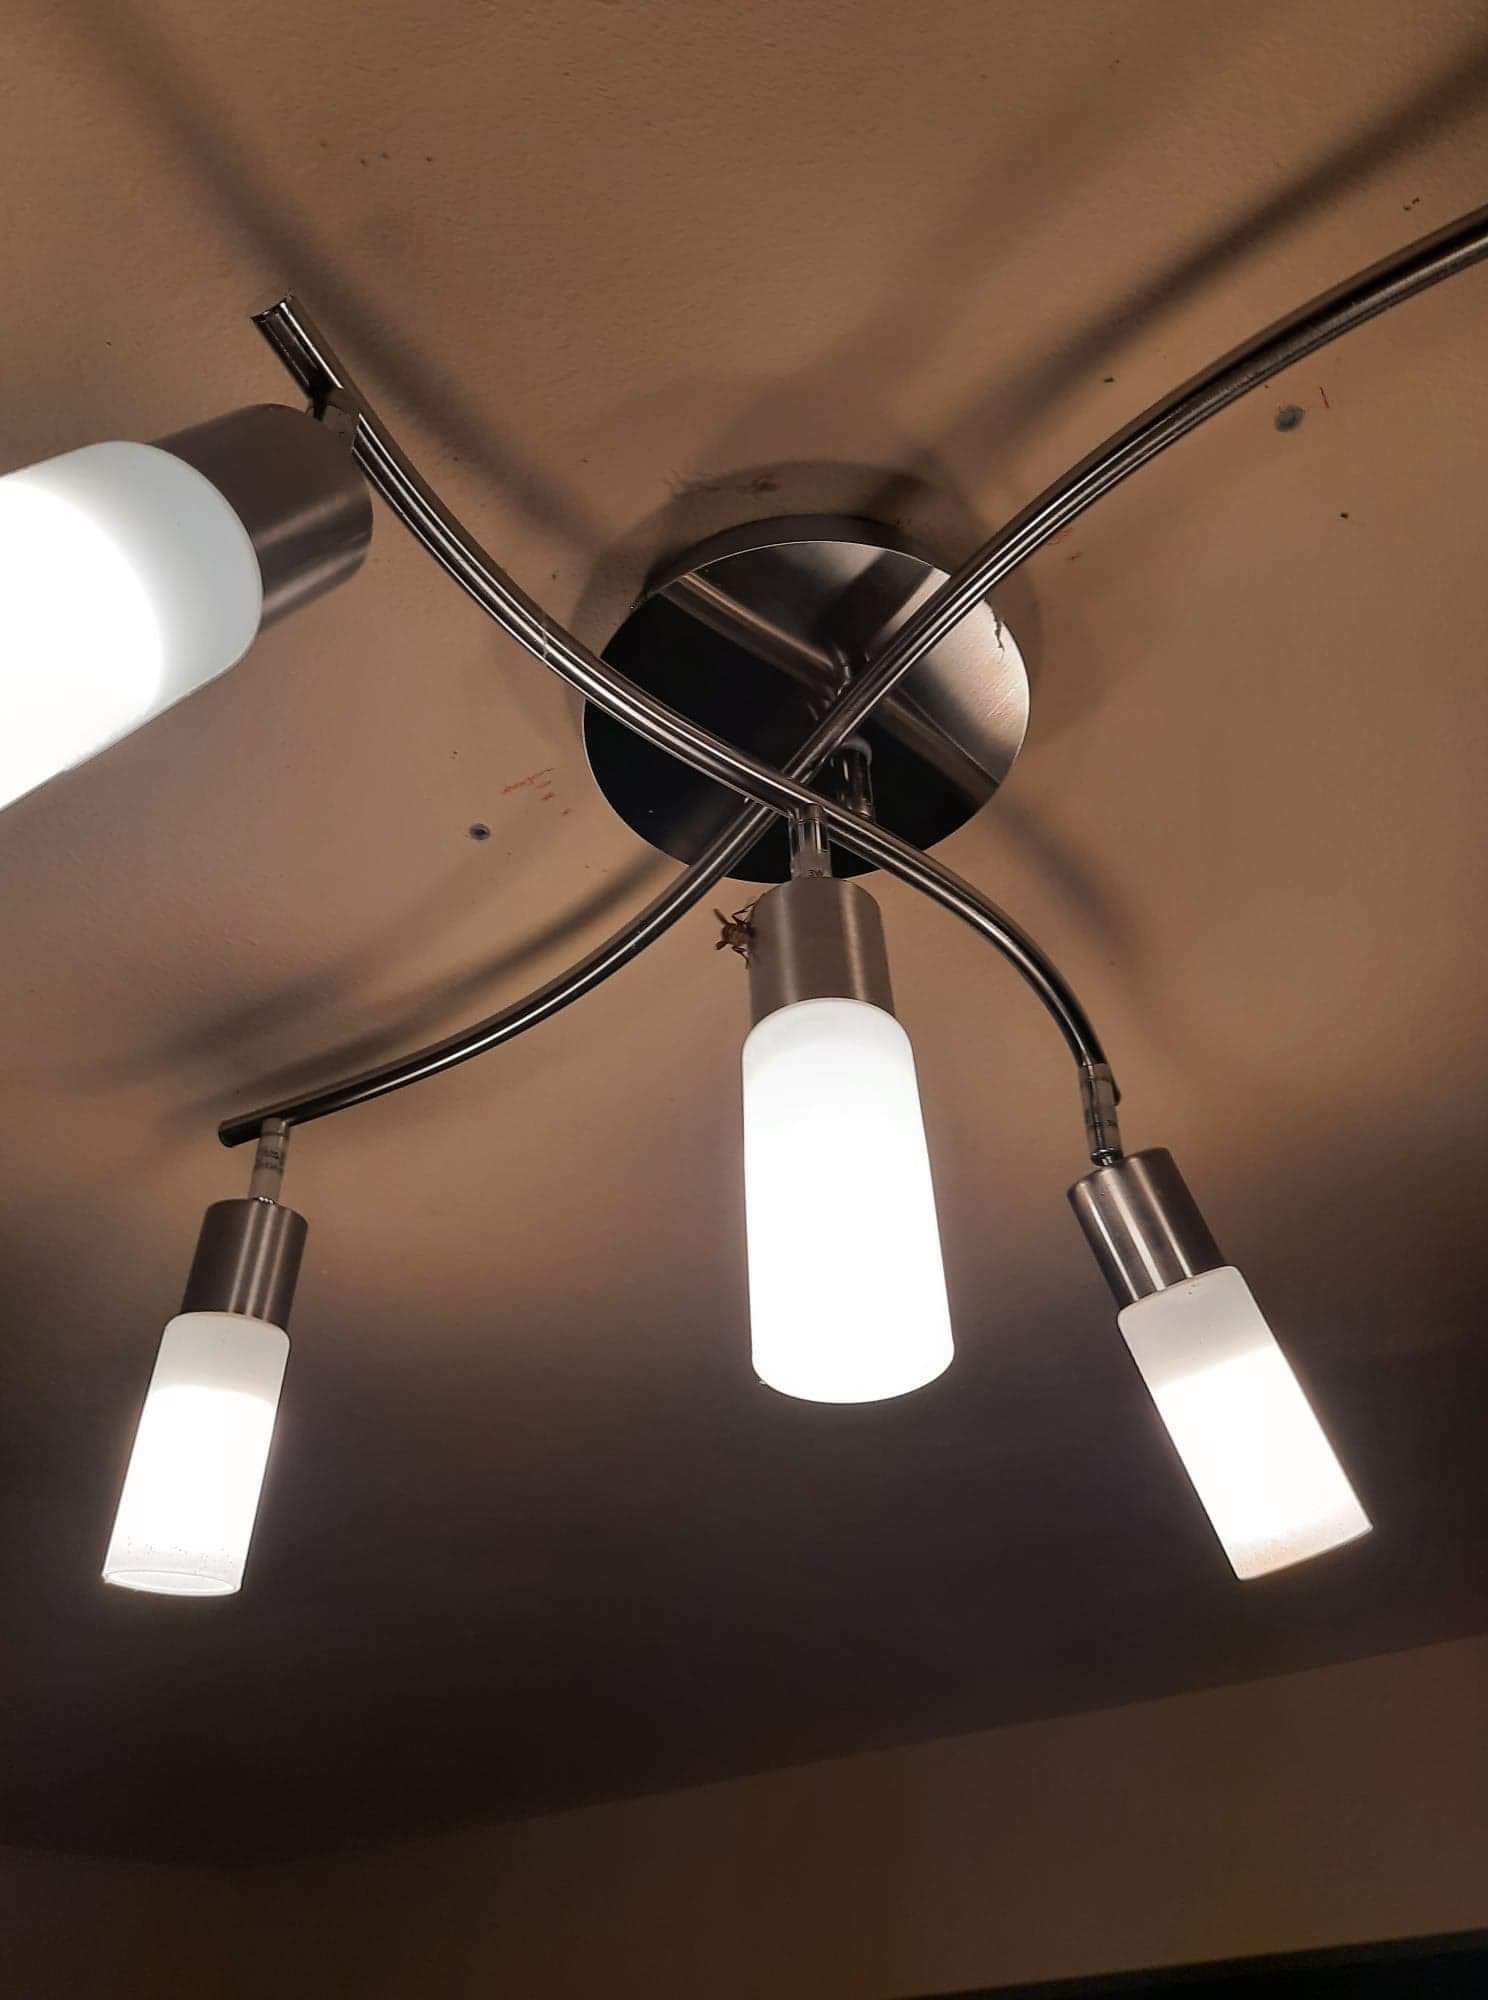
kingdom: Animalia
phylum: Arthropoda
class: Insecta
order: Hymenoptera
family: Vespidae
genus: Vespa
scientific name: Vespa crabro
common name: Hornet
